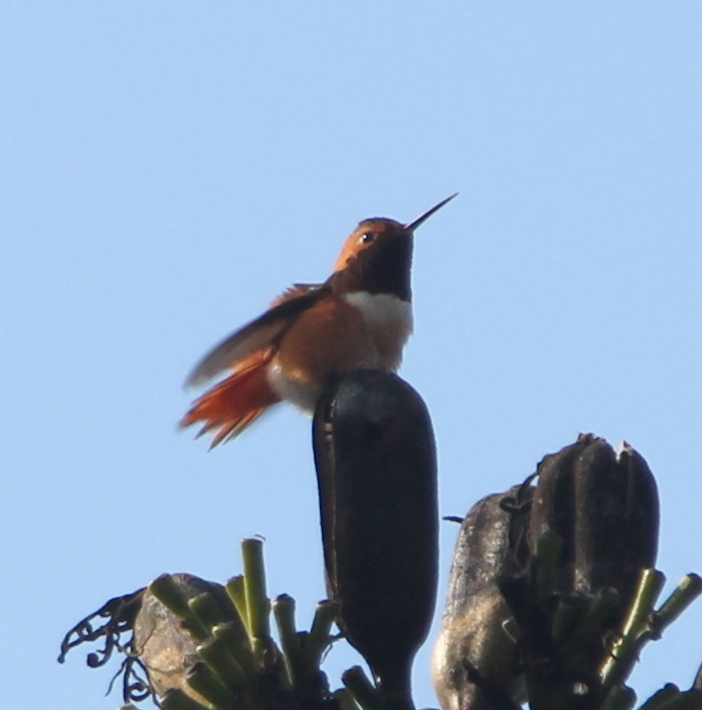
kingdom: Animalia
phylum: Chordata
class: Aves
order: Apodiformes
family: Trochilidae
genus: Selasphorus
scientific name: Selasphorus sasin
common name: Allen's hummingbird
